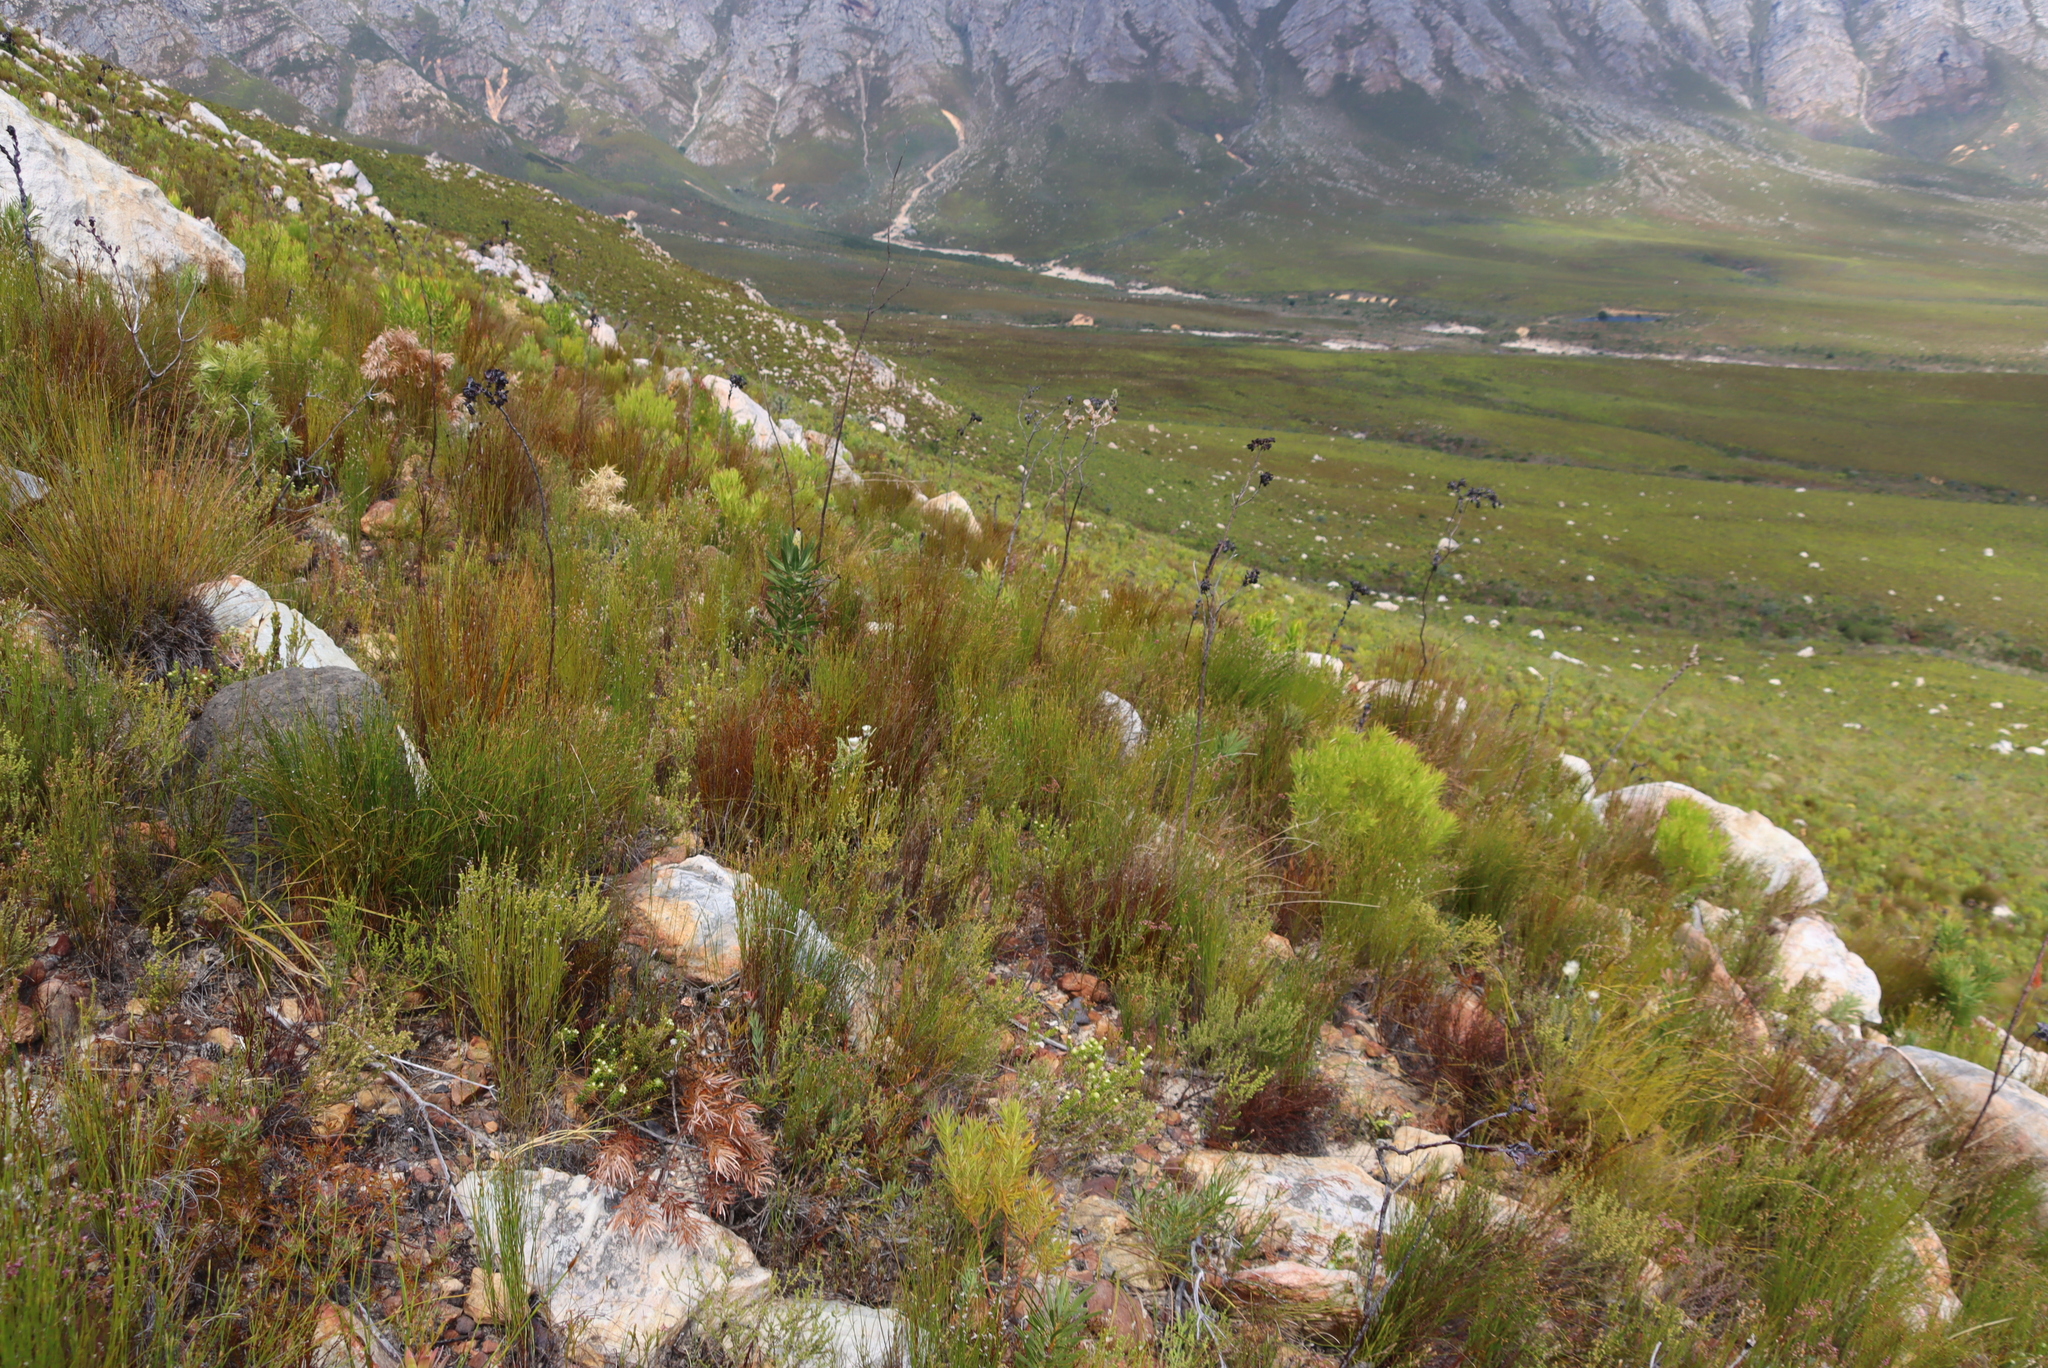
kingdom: Plantae
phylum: Tracheophyta
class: Magnoliopsida
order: Santalales
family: Thesiaceae
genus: Thesium
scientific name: Thesium euphorbioides
